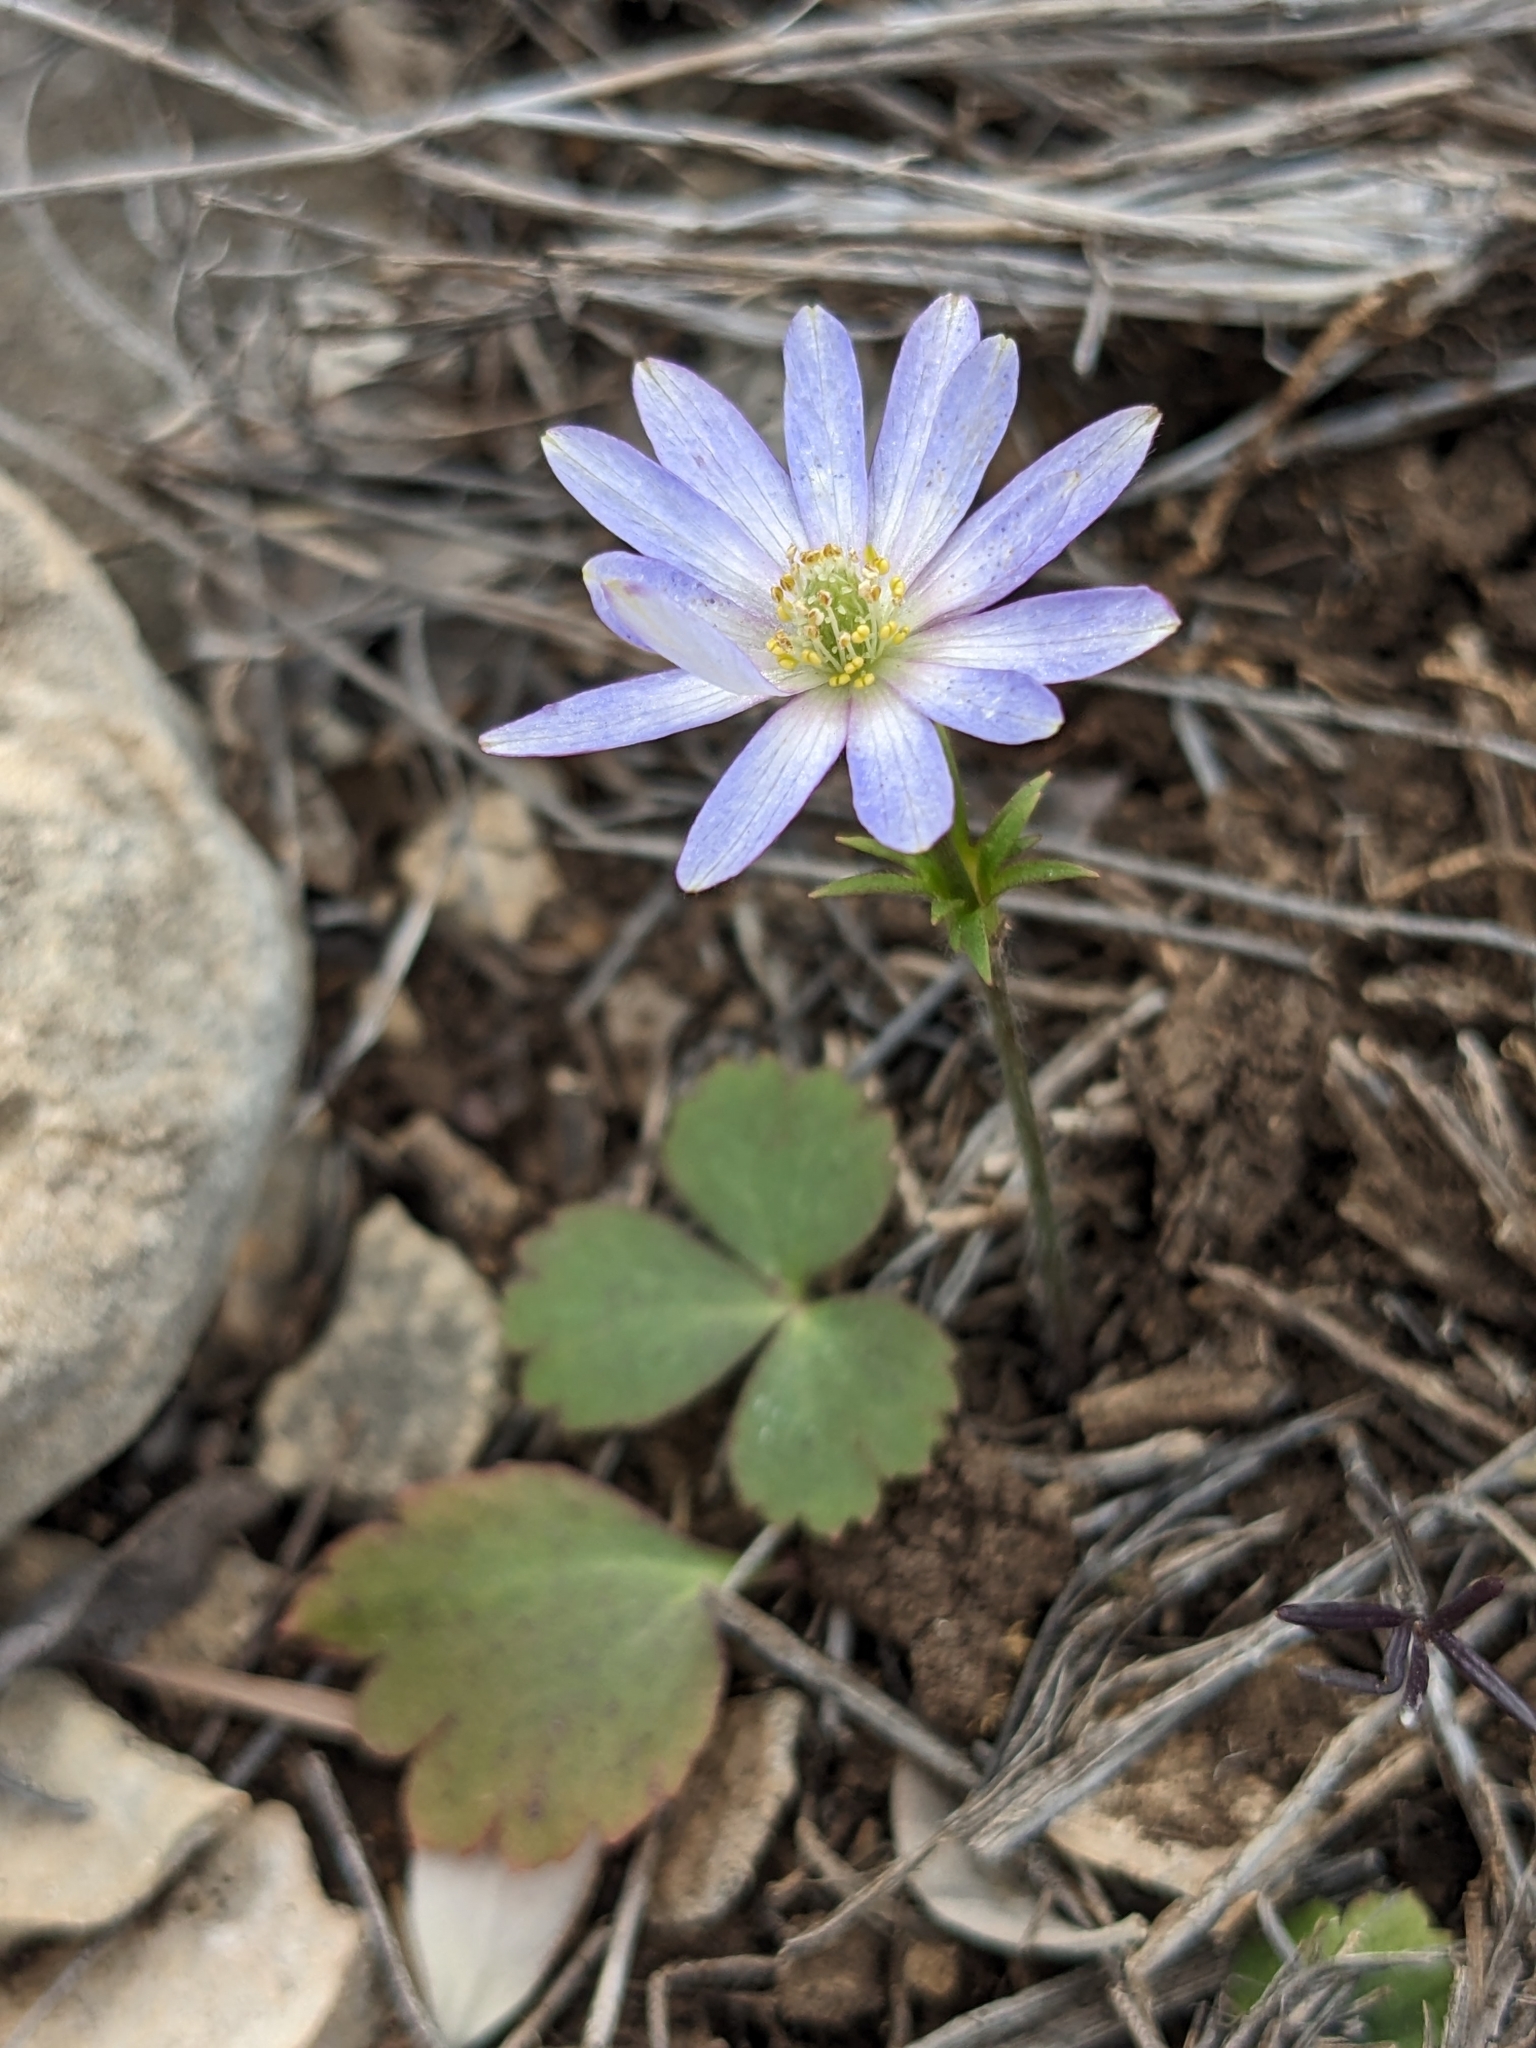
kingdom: Plantae
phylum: Tracheophyta
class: Magnoliopsida
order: Ranunculales
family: Ranunculaceae
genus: Anemone
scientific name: Anemone berlandieri
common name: Ten-petal anemone
